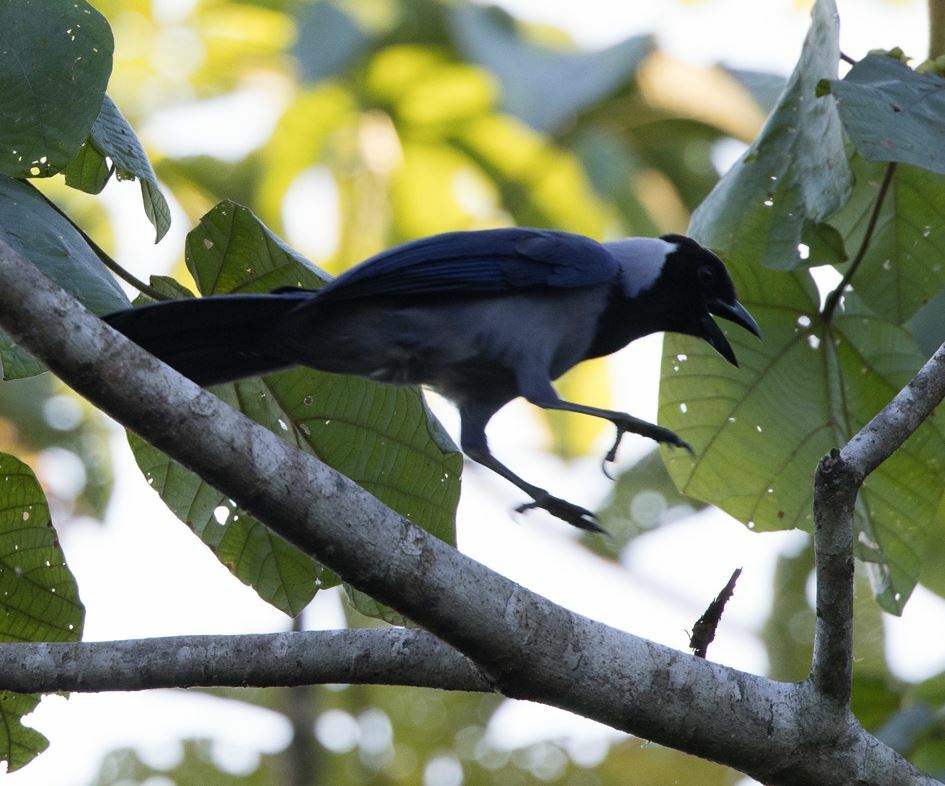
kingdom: Animalia
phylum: Chordata
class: Aves
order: Passeriformes
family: Corvidae
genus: Cyanocorax
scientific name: Cyanocorax violaceus
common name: Violaceous jay
